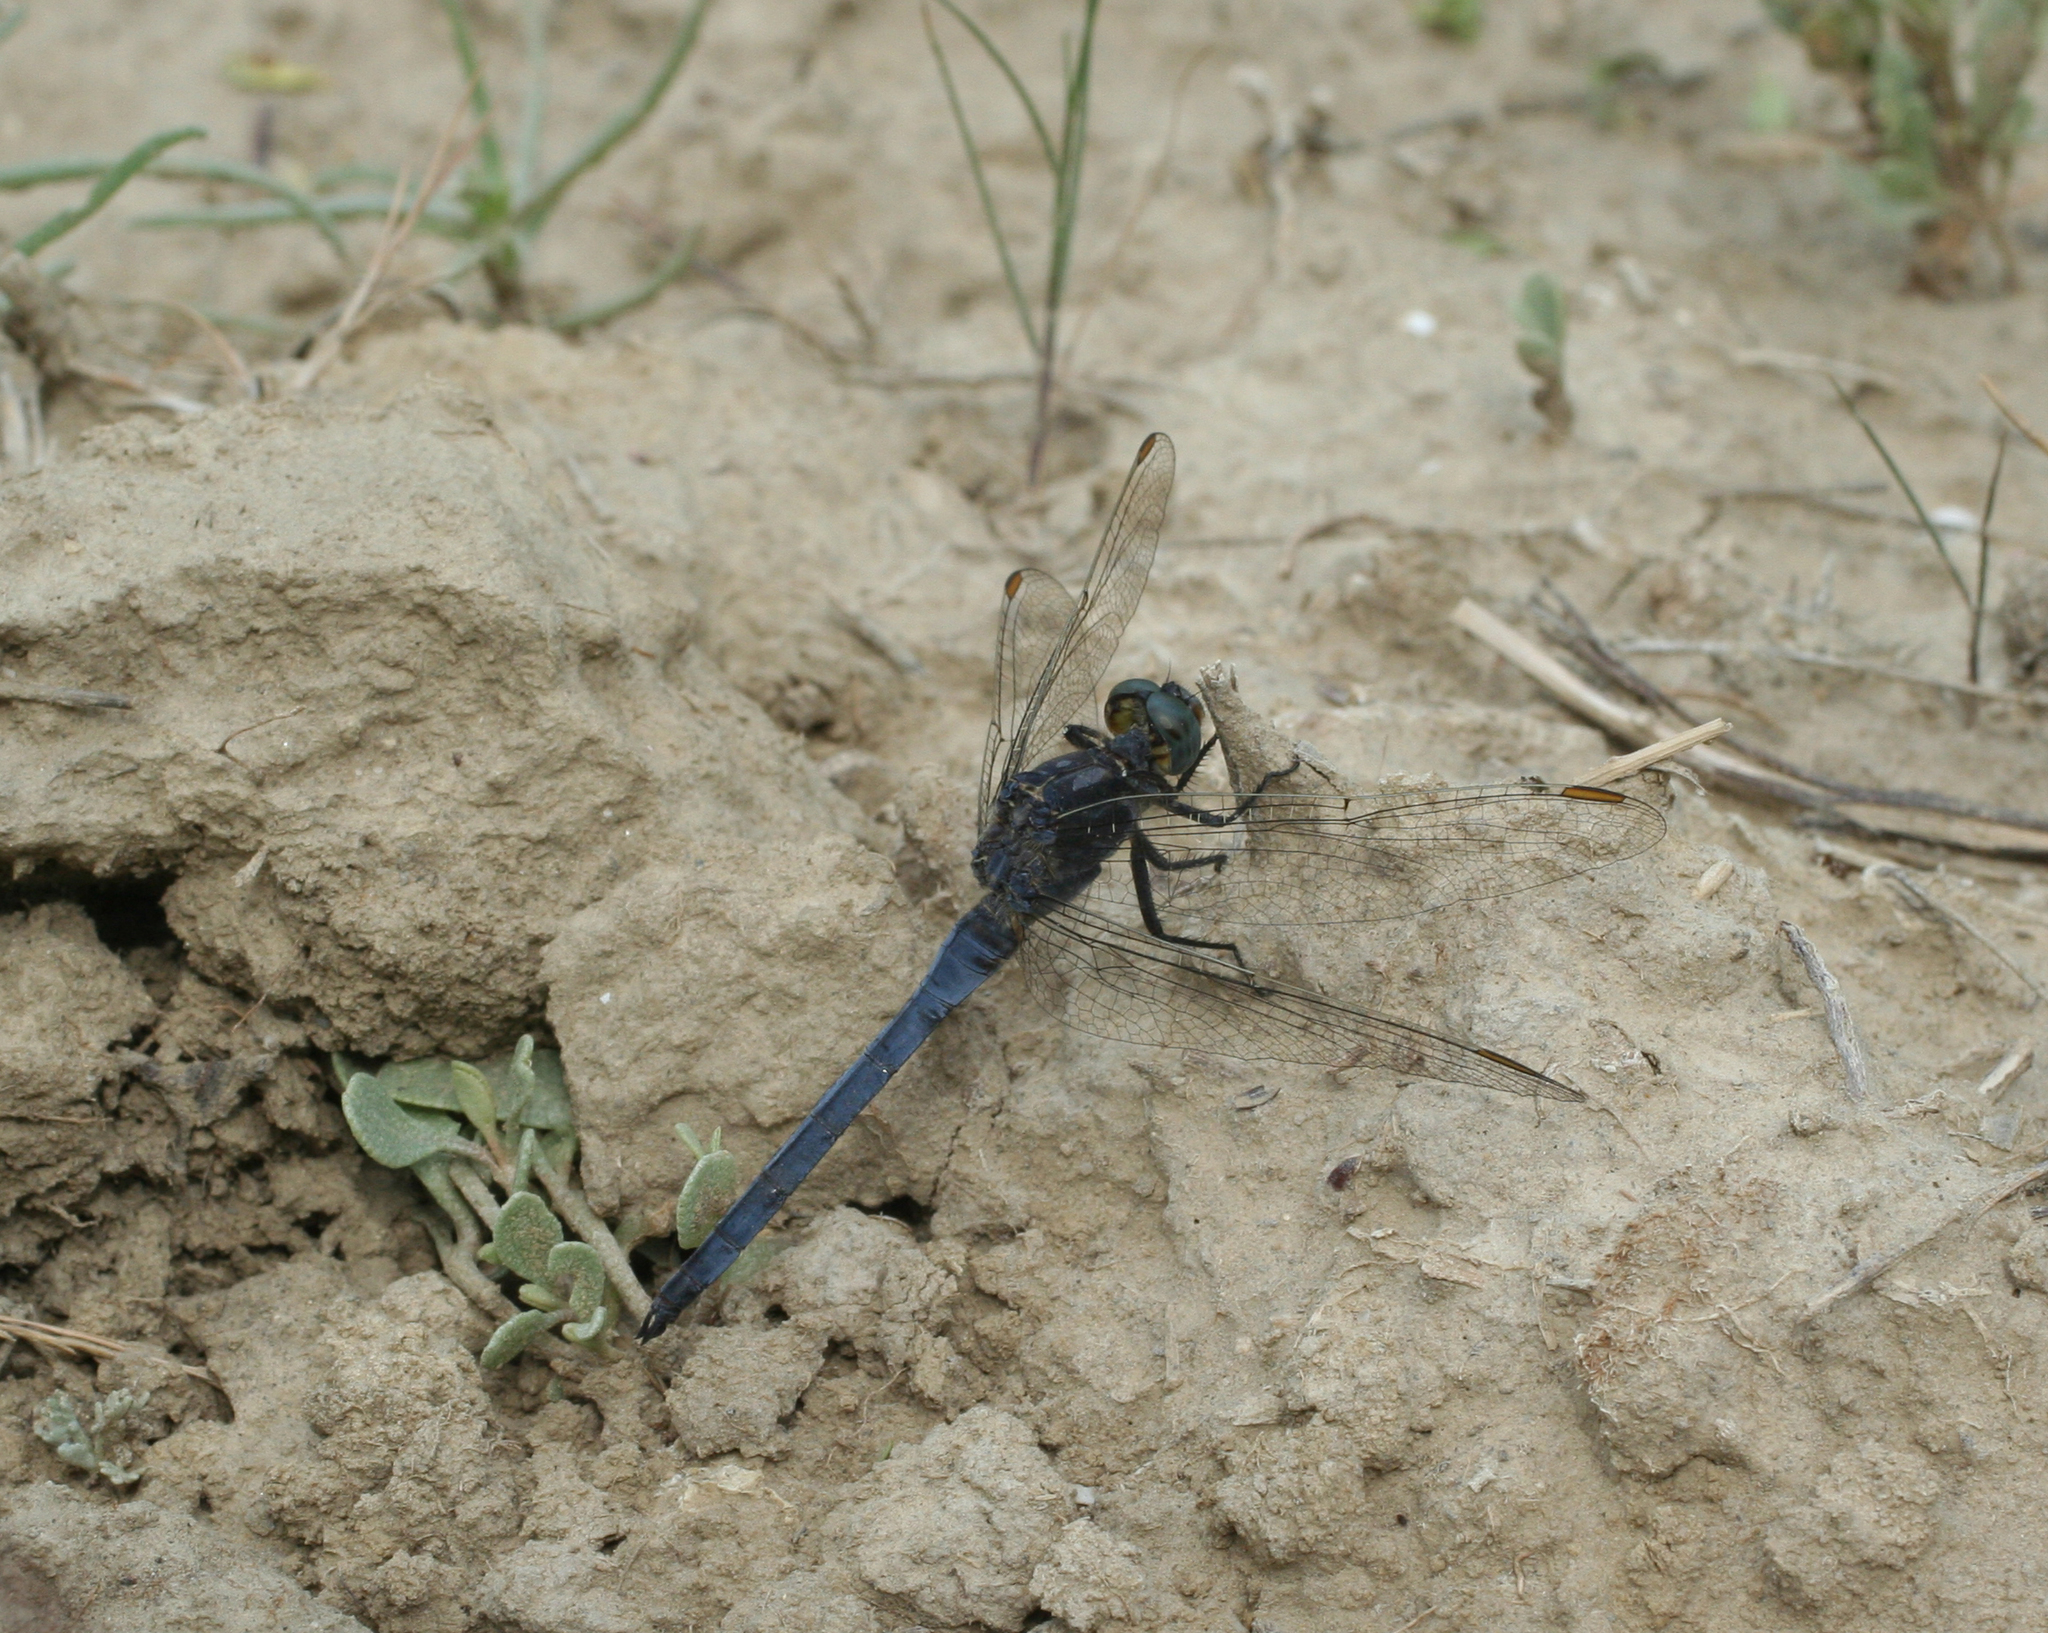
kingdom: Animalia
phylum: Arthropoda
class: Insecta
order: Odonata
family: Libellulidae
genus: Orthetrum
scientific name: Orthetrum coerulescens
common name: Keeled skimmer
